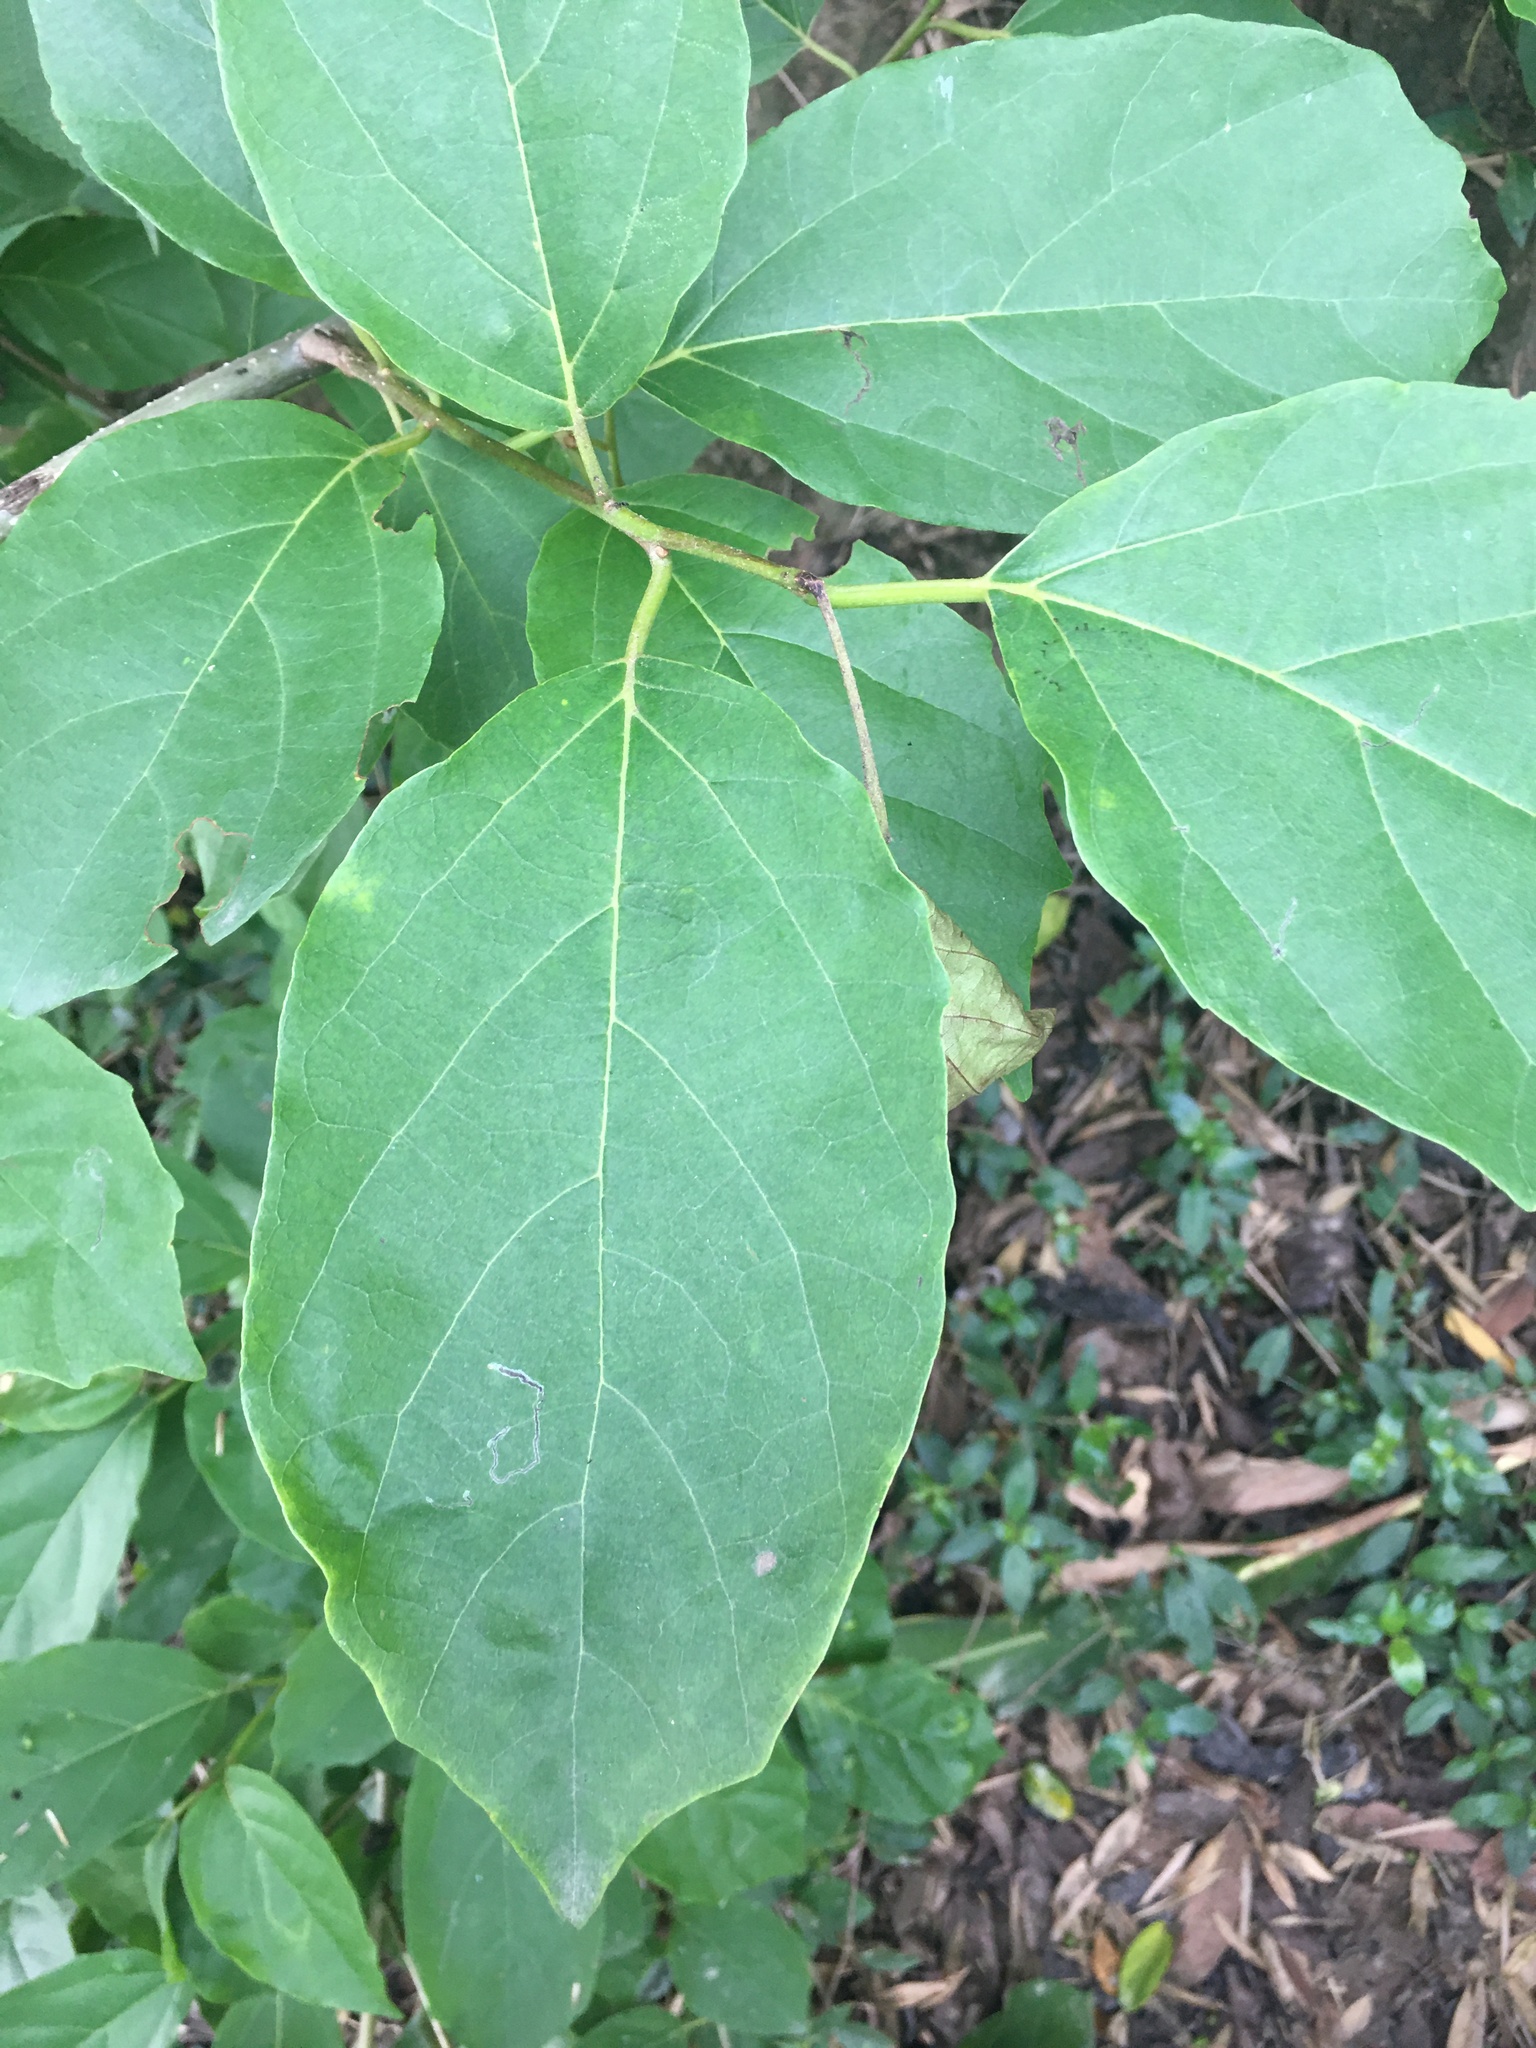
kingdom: Plantae
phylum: Tracheophyta
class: Magnoliopsida
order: Boraginales
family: Cordiaceae
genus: Cordia
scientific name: Cordia dichotoma
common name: Fragrant manjack
